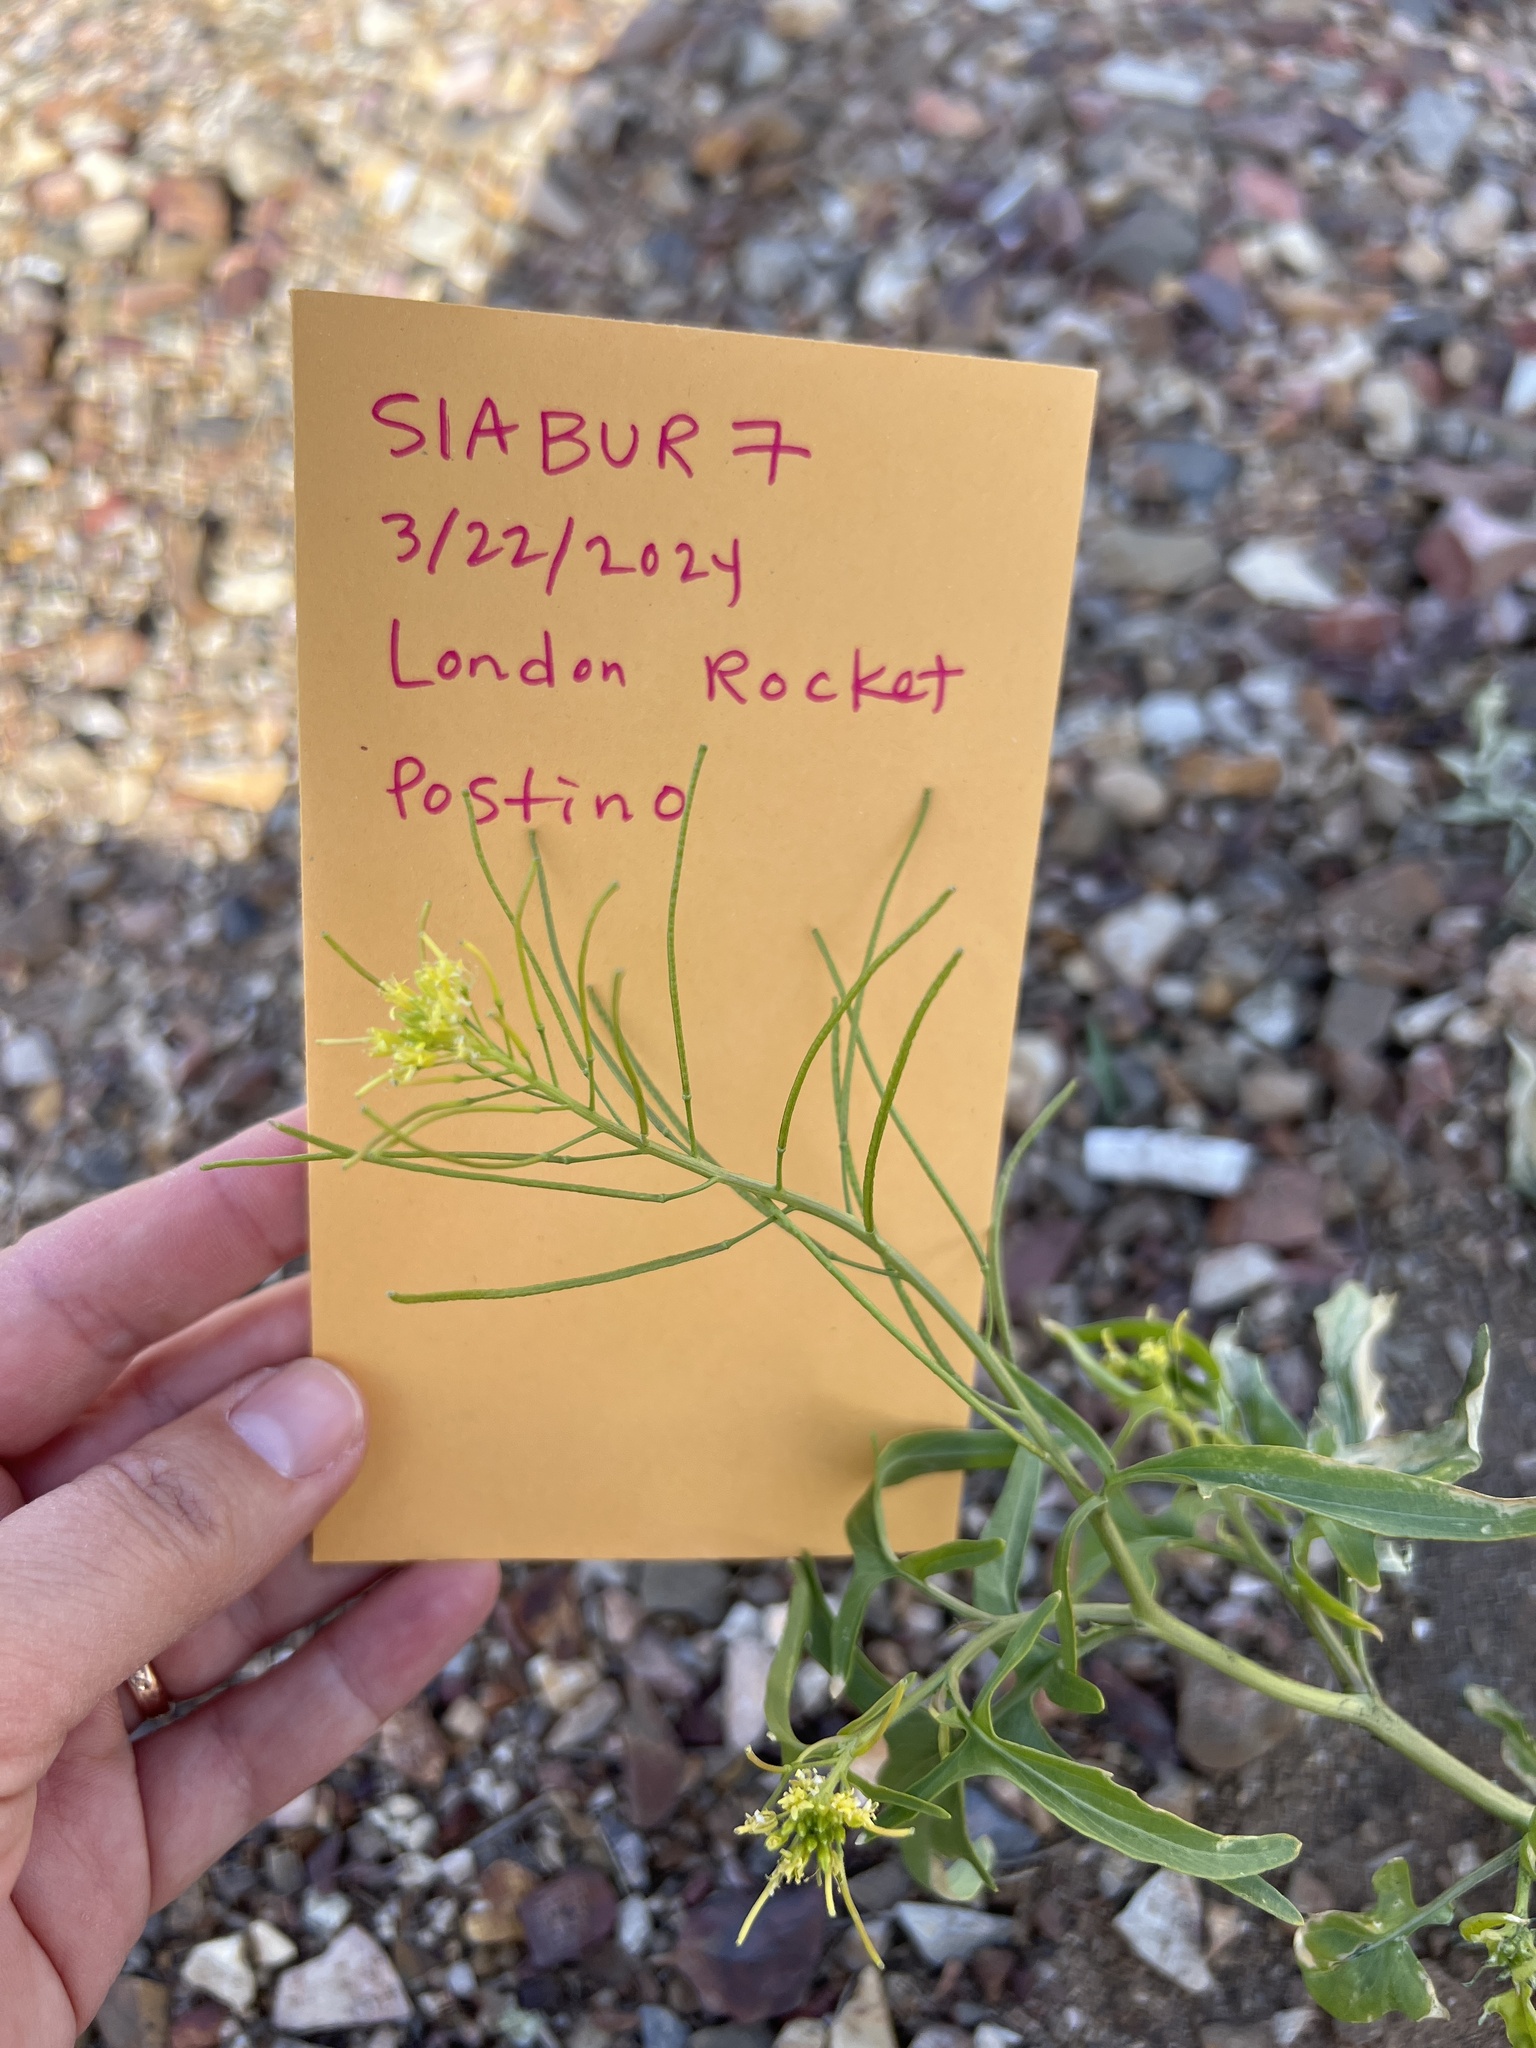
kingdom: Plantae
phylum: Tracheophyta
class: Magnoliopsida
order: Brassicales
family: Brassicaceae
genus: Sisymbrium
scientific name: Sisymbrium irio
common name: London rocket
